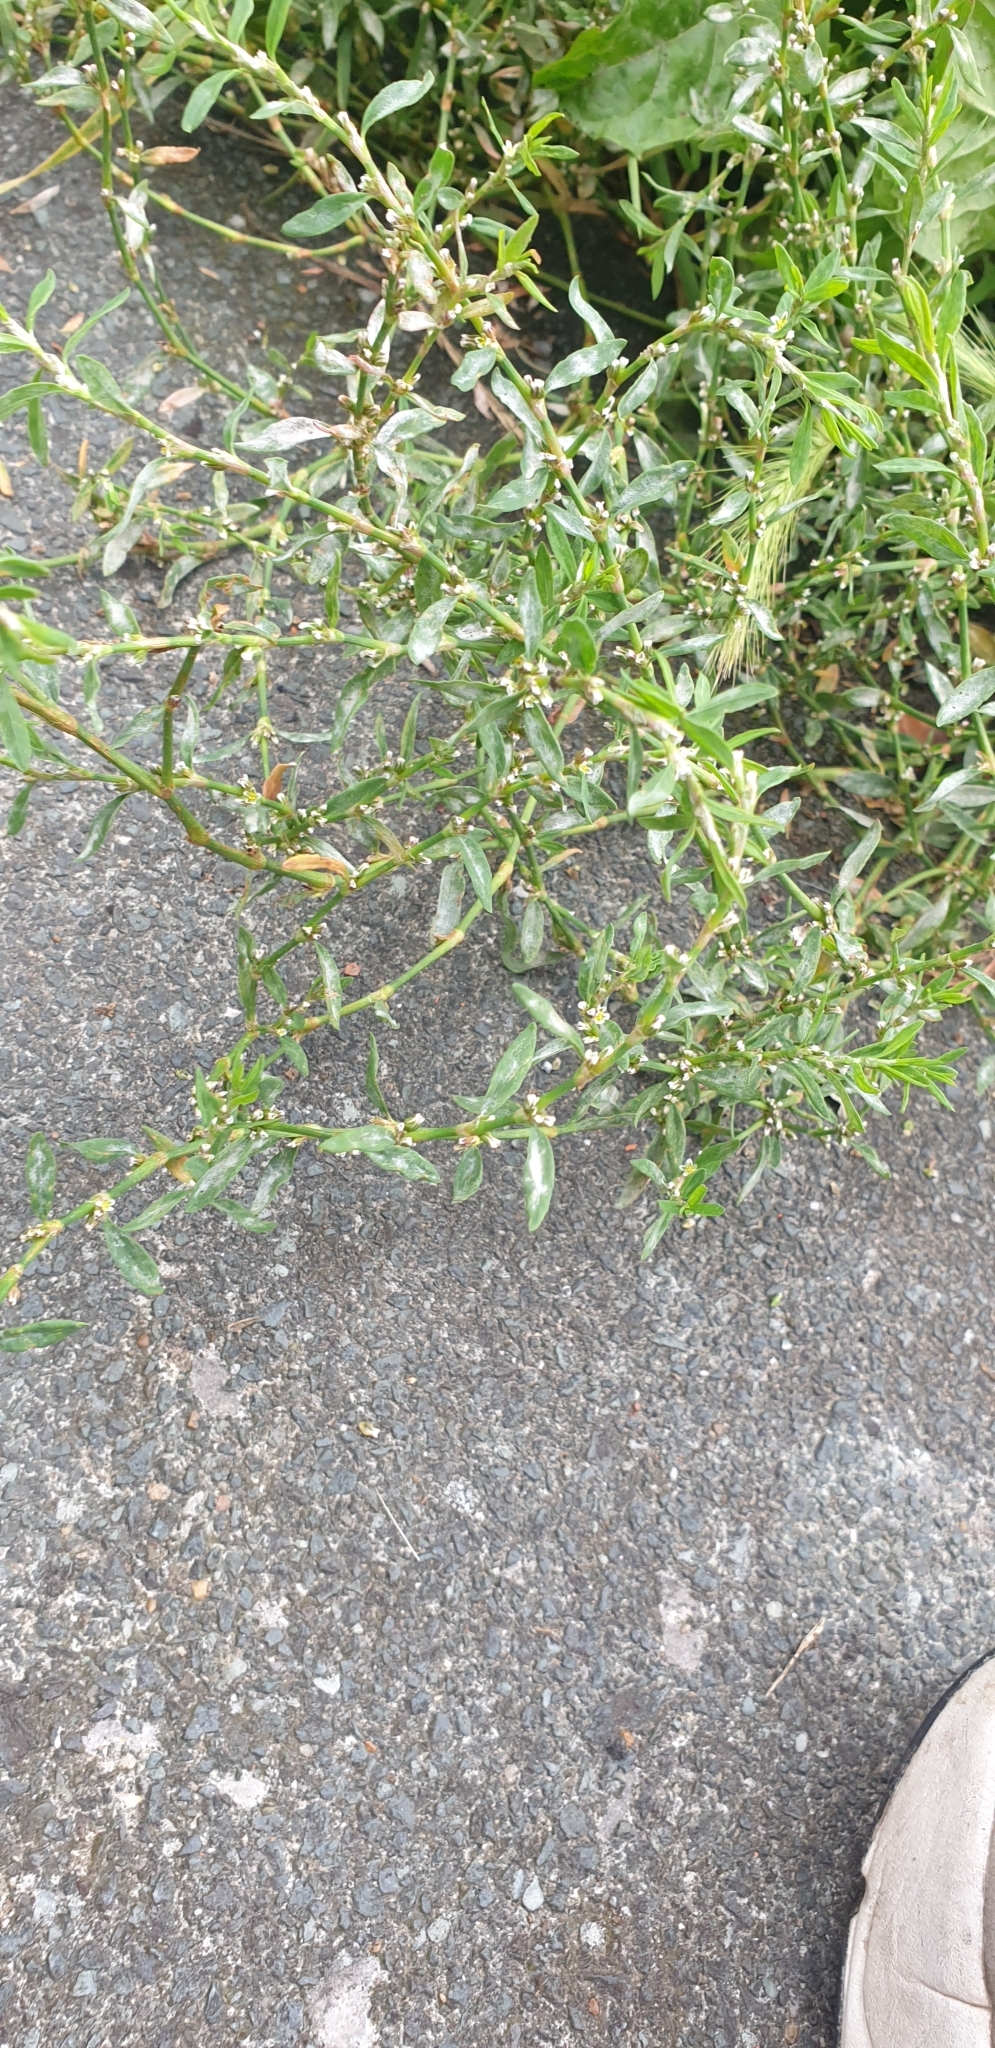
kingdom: Plantae
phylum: Tracheophyta
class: Magnoliopsida
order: Caryophyllales
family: Polygonaceae
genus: Polygonum
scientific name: Polygonum aviculare
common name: Prostrate knotweed
